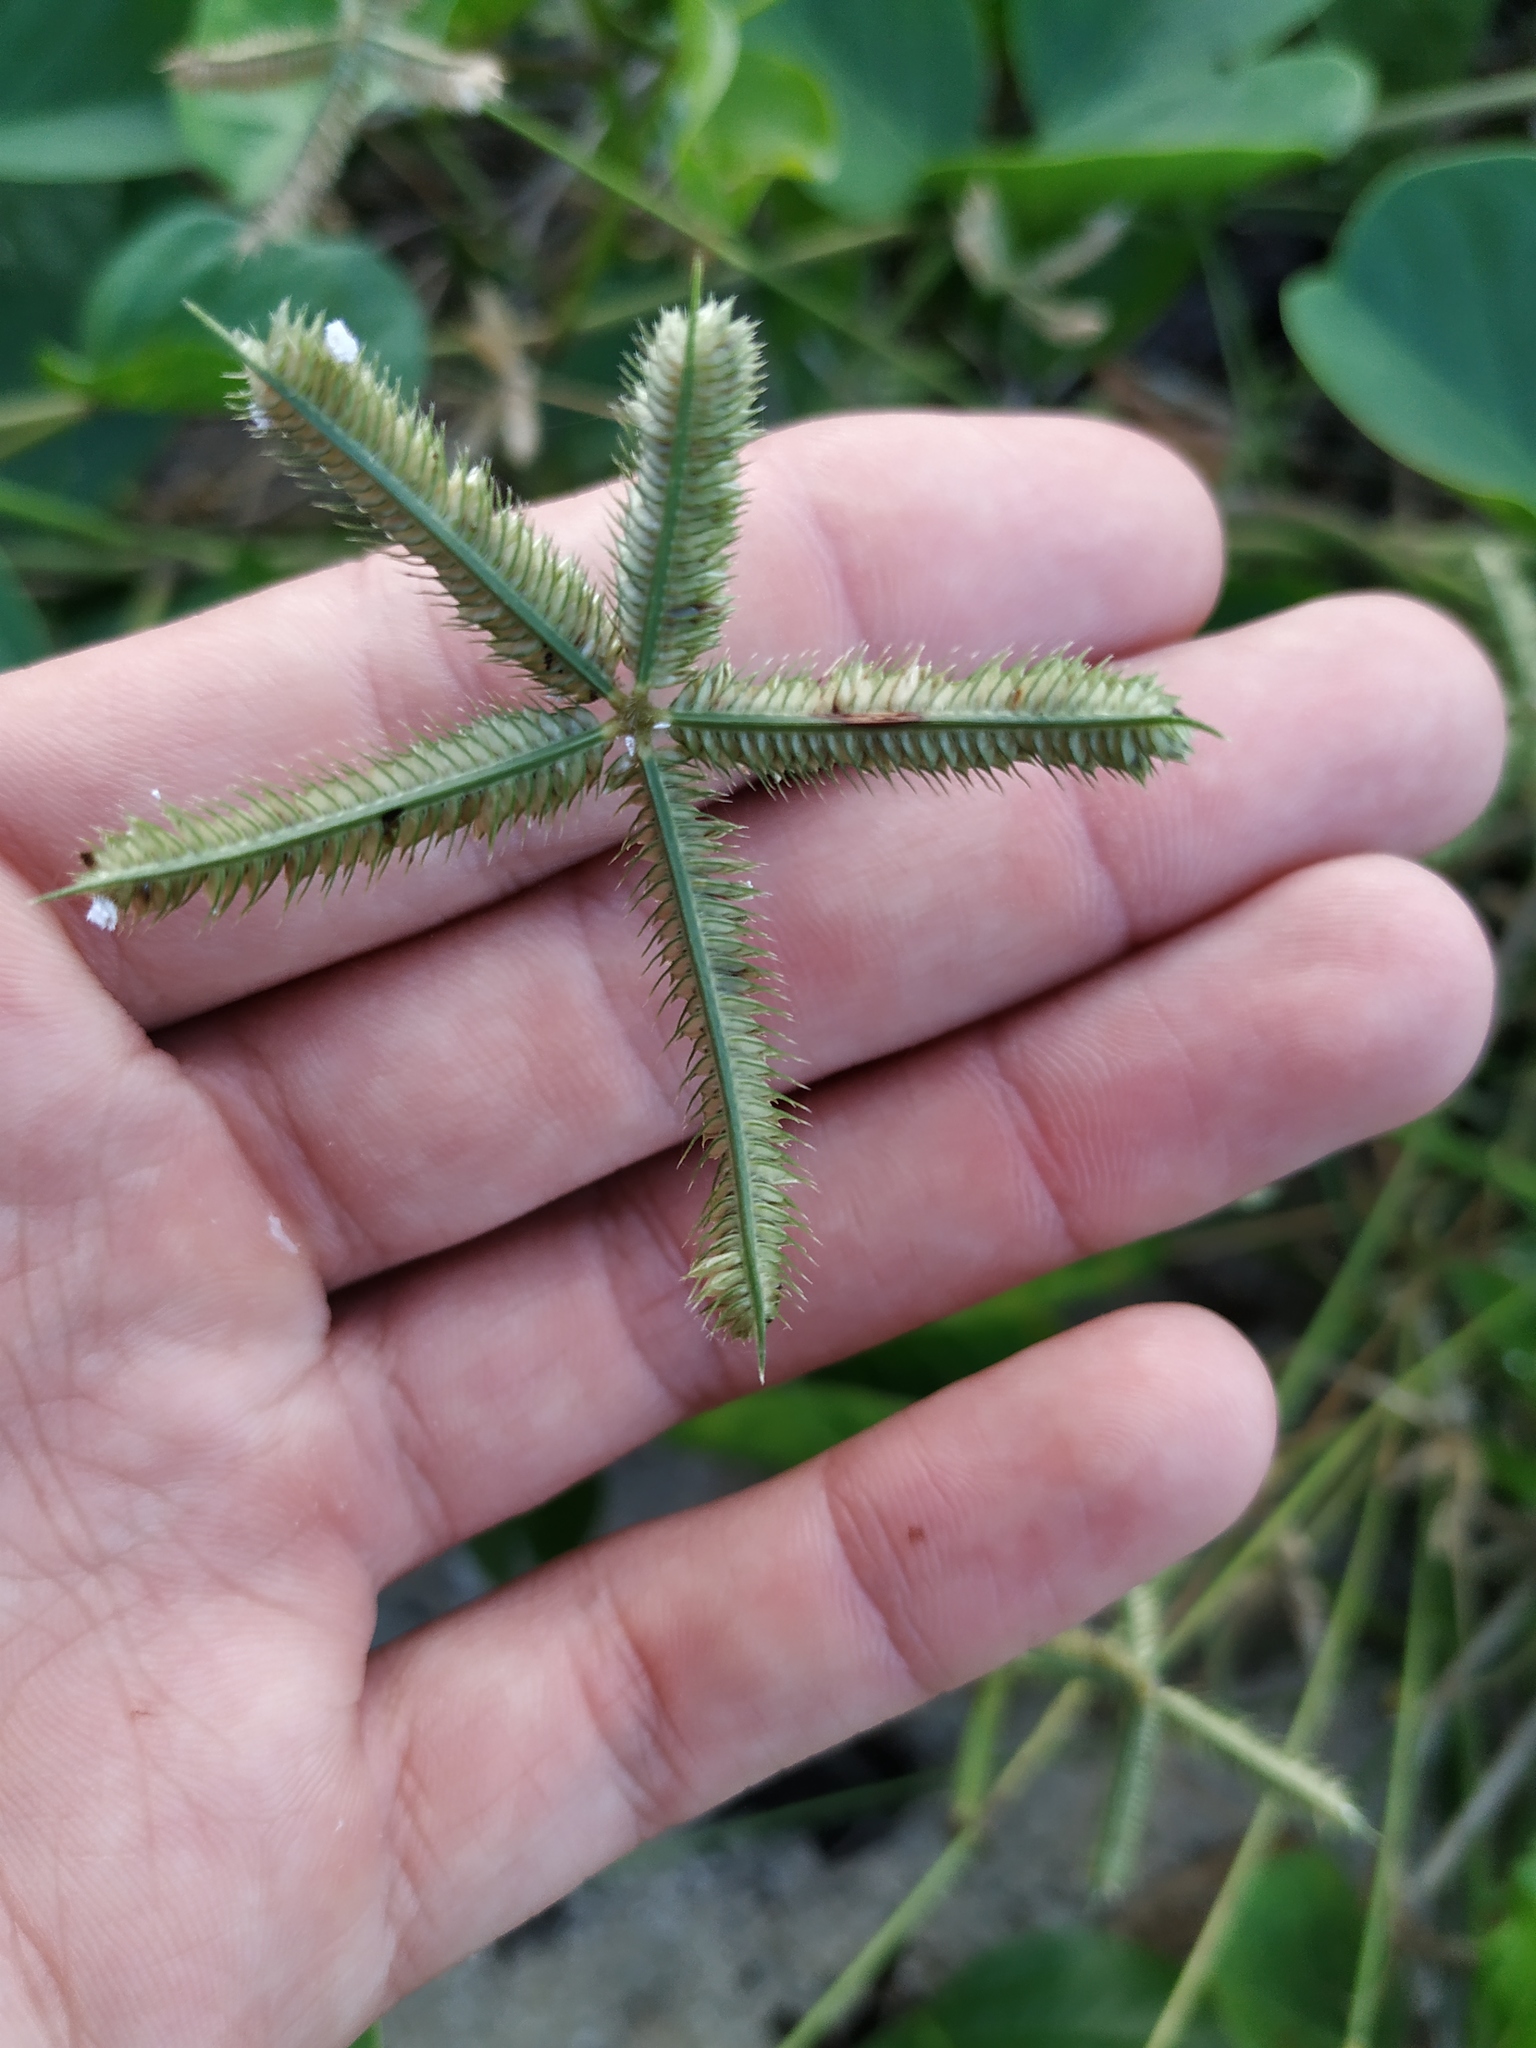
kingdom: Plantae
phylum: Tracheophyta
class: Liliopsida
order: Poales
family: Poaceae
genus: Dactyloctenium
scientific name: Dactyloctenium aegyptium
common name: Egyptian grass
